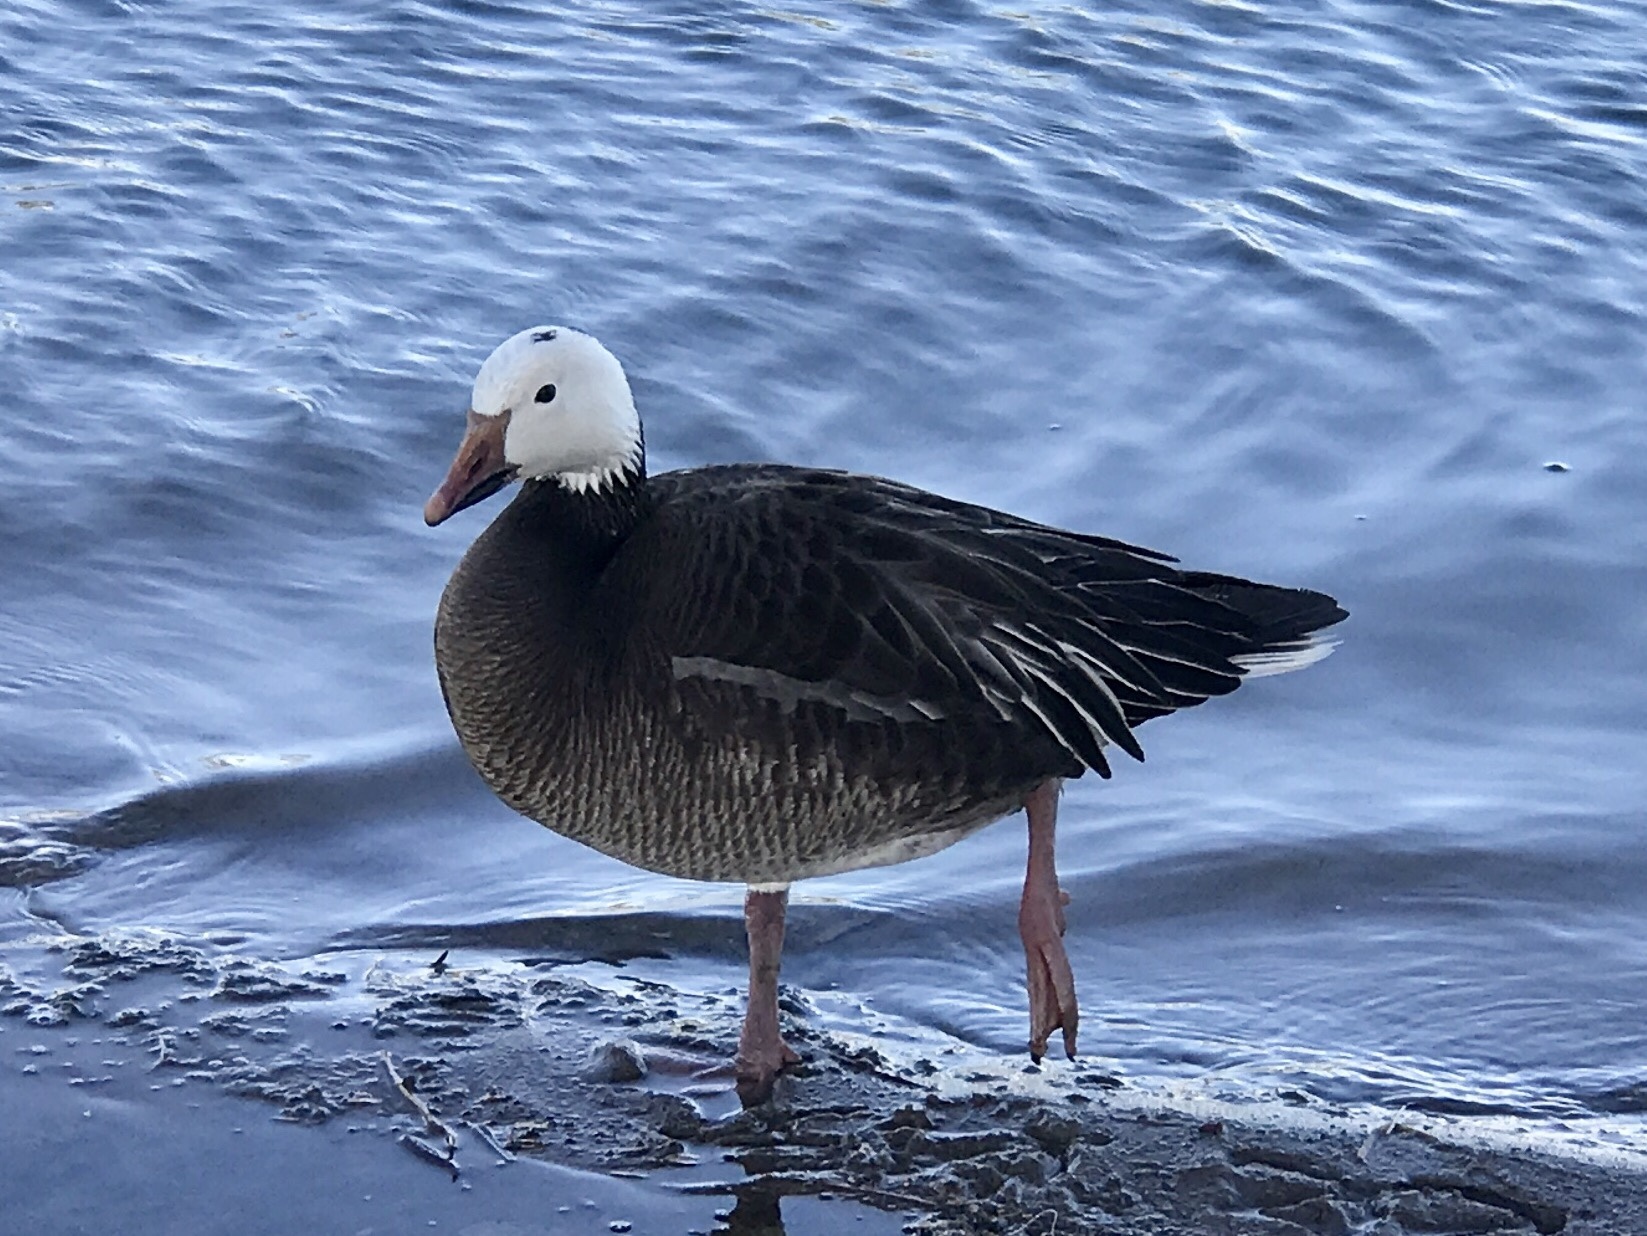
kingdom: Animalia
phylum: Chordata
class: Aves
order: Anseriformes
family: Anatidae
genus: Anser
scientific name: Anser caerulescens
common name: Snow goose
